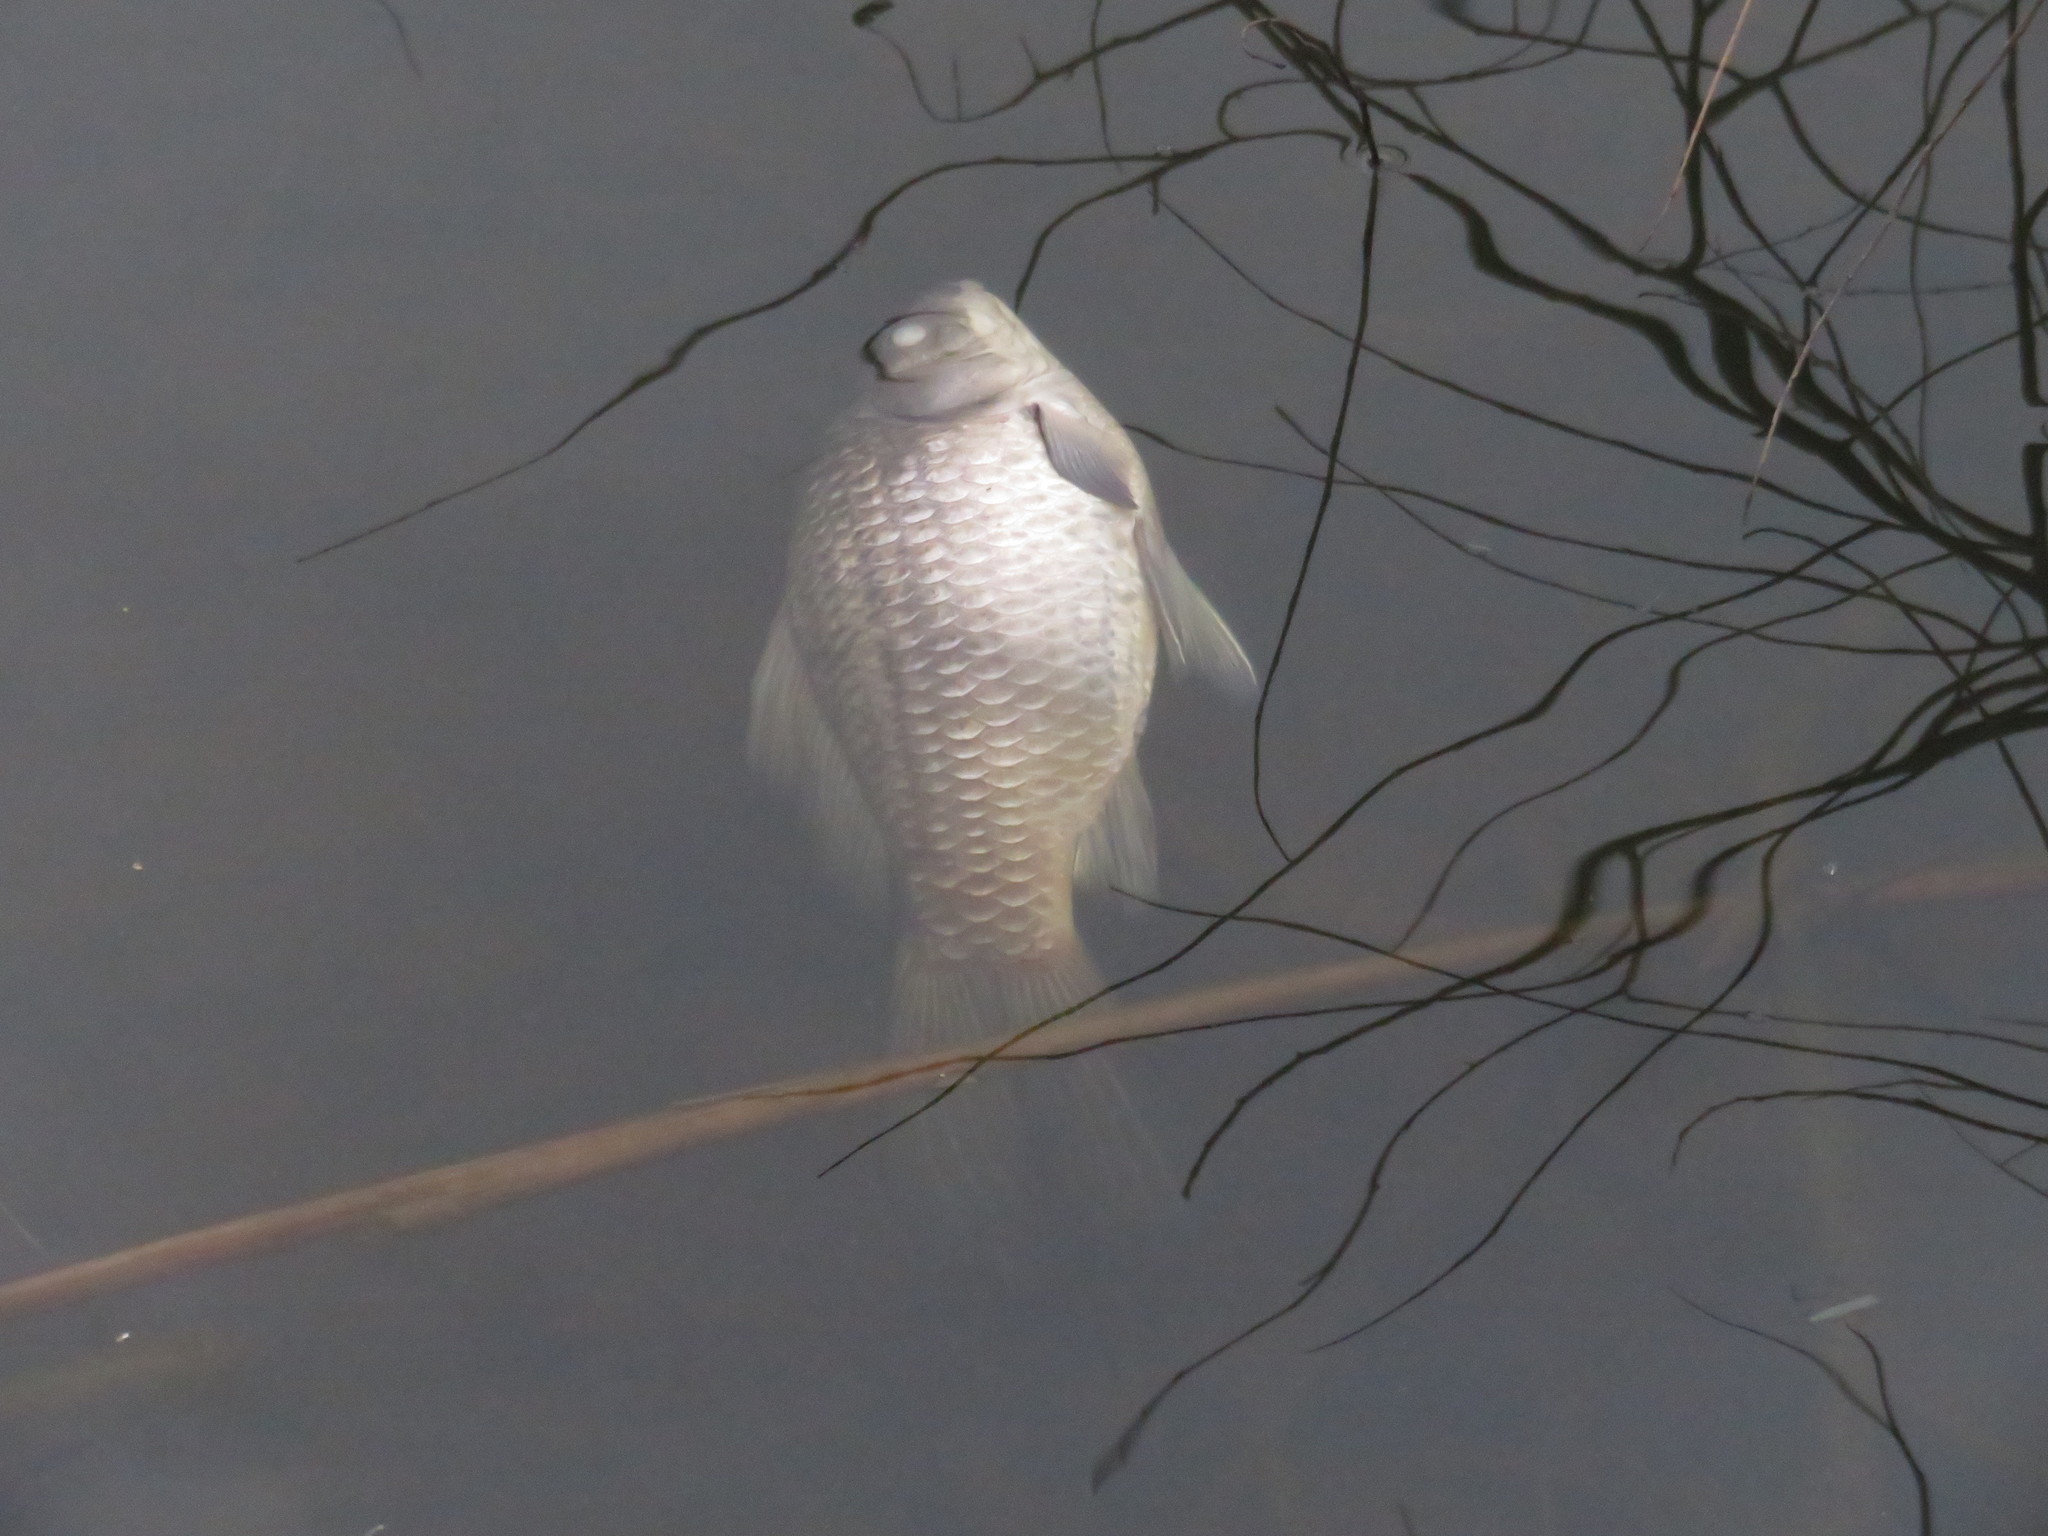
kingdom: Animalia
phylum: Chordata
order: Cypriniformes
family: Cyprinidae
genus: Carassius
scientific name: Carassius auratus
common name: Goldfish
